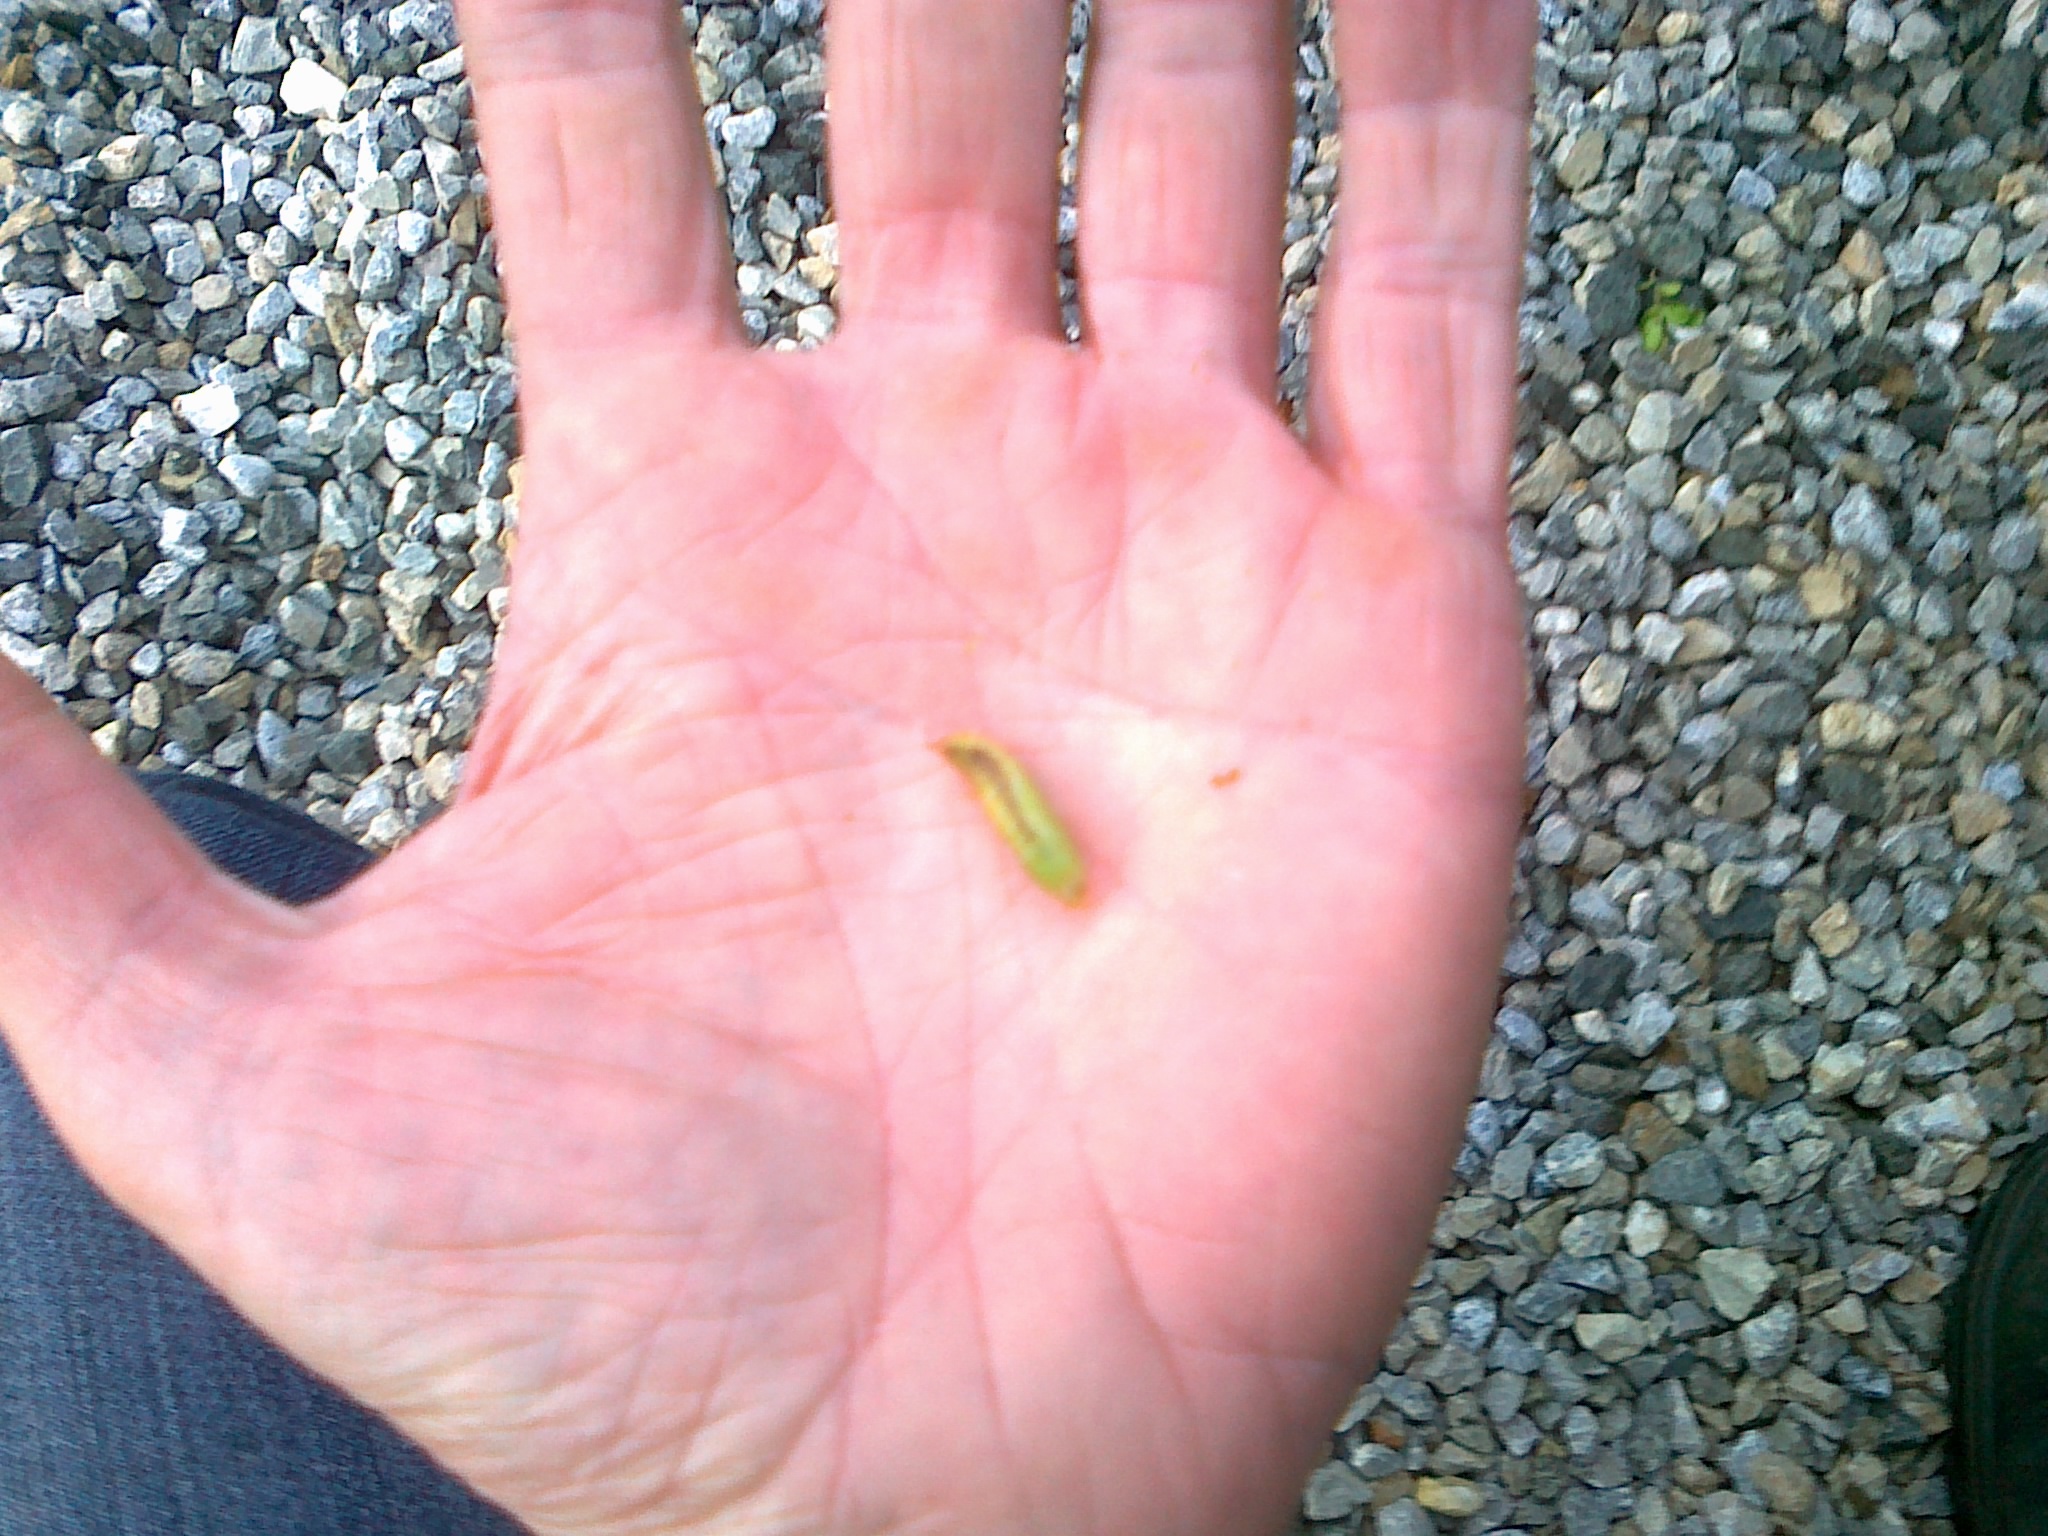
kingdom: Animalia
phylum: Arthropoda
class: Insecta
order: Lepidoptera
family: Crambidae
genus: Cydalima
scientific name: Cydalima perspectalis
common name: Box tree moth
